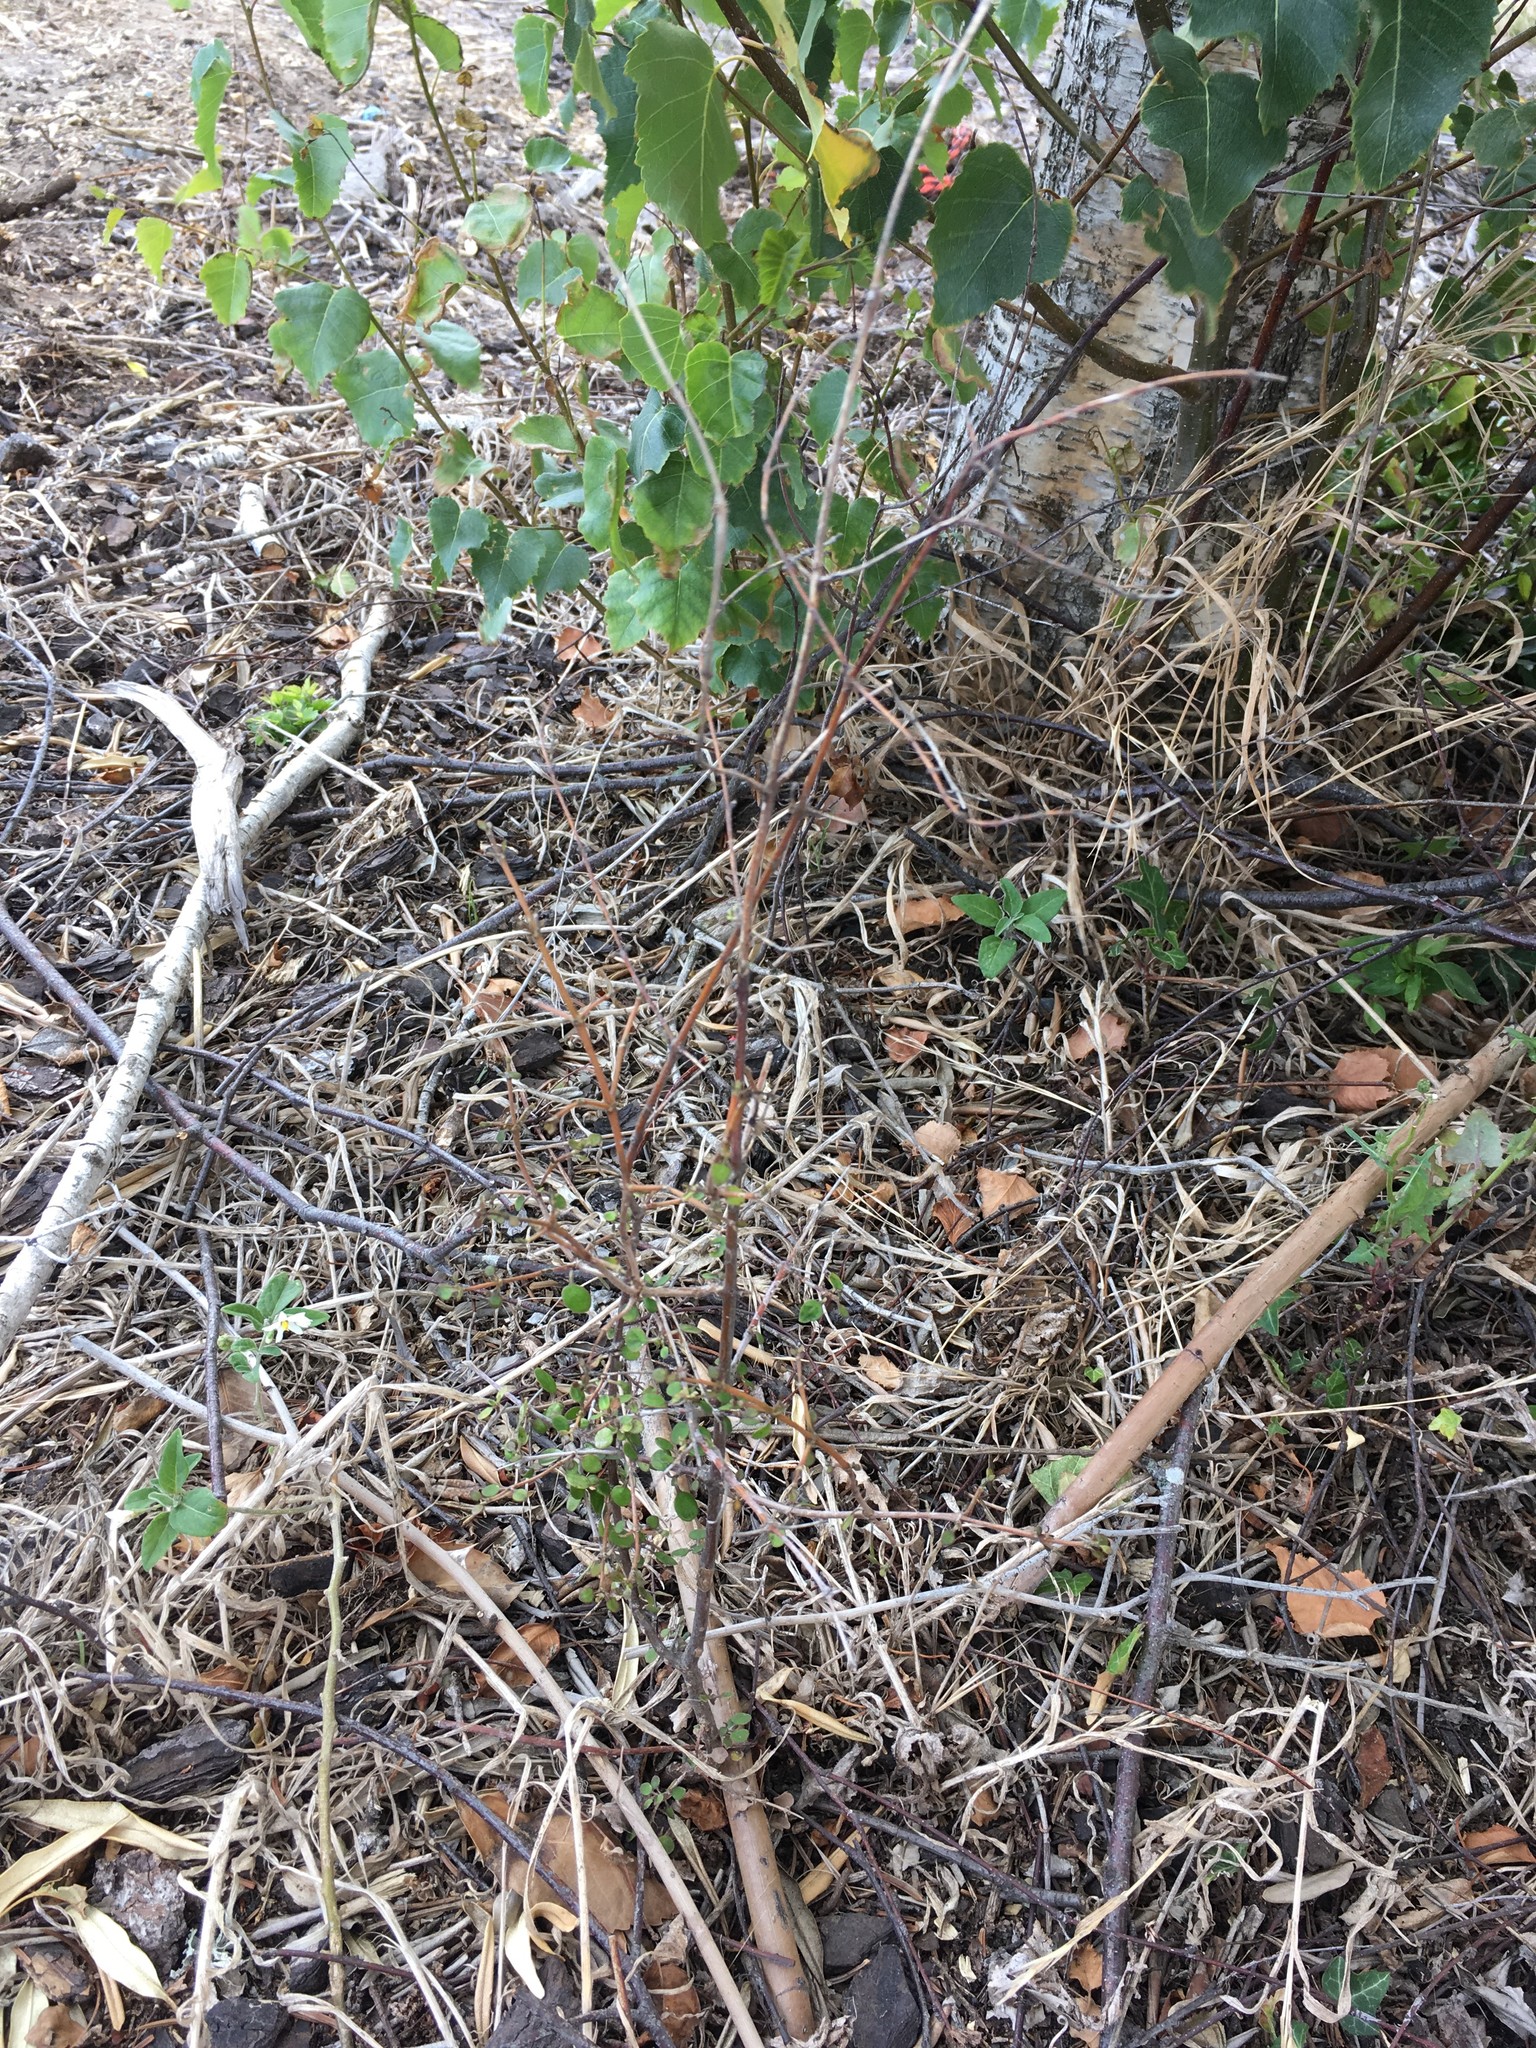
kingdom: Plantae
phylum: Tracheophyta
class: Magnoliopsida
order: Gentianales
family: Rubiaceae
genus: Coprosma
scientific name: Coprosma crassifolia
